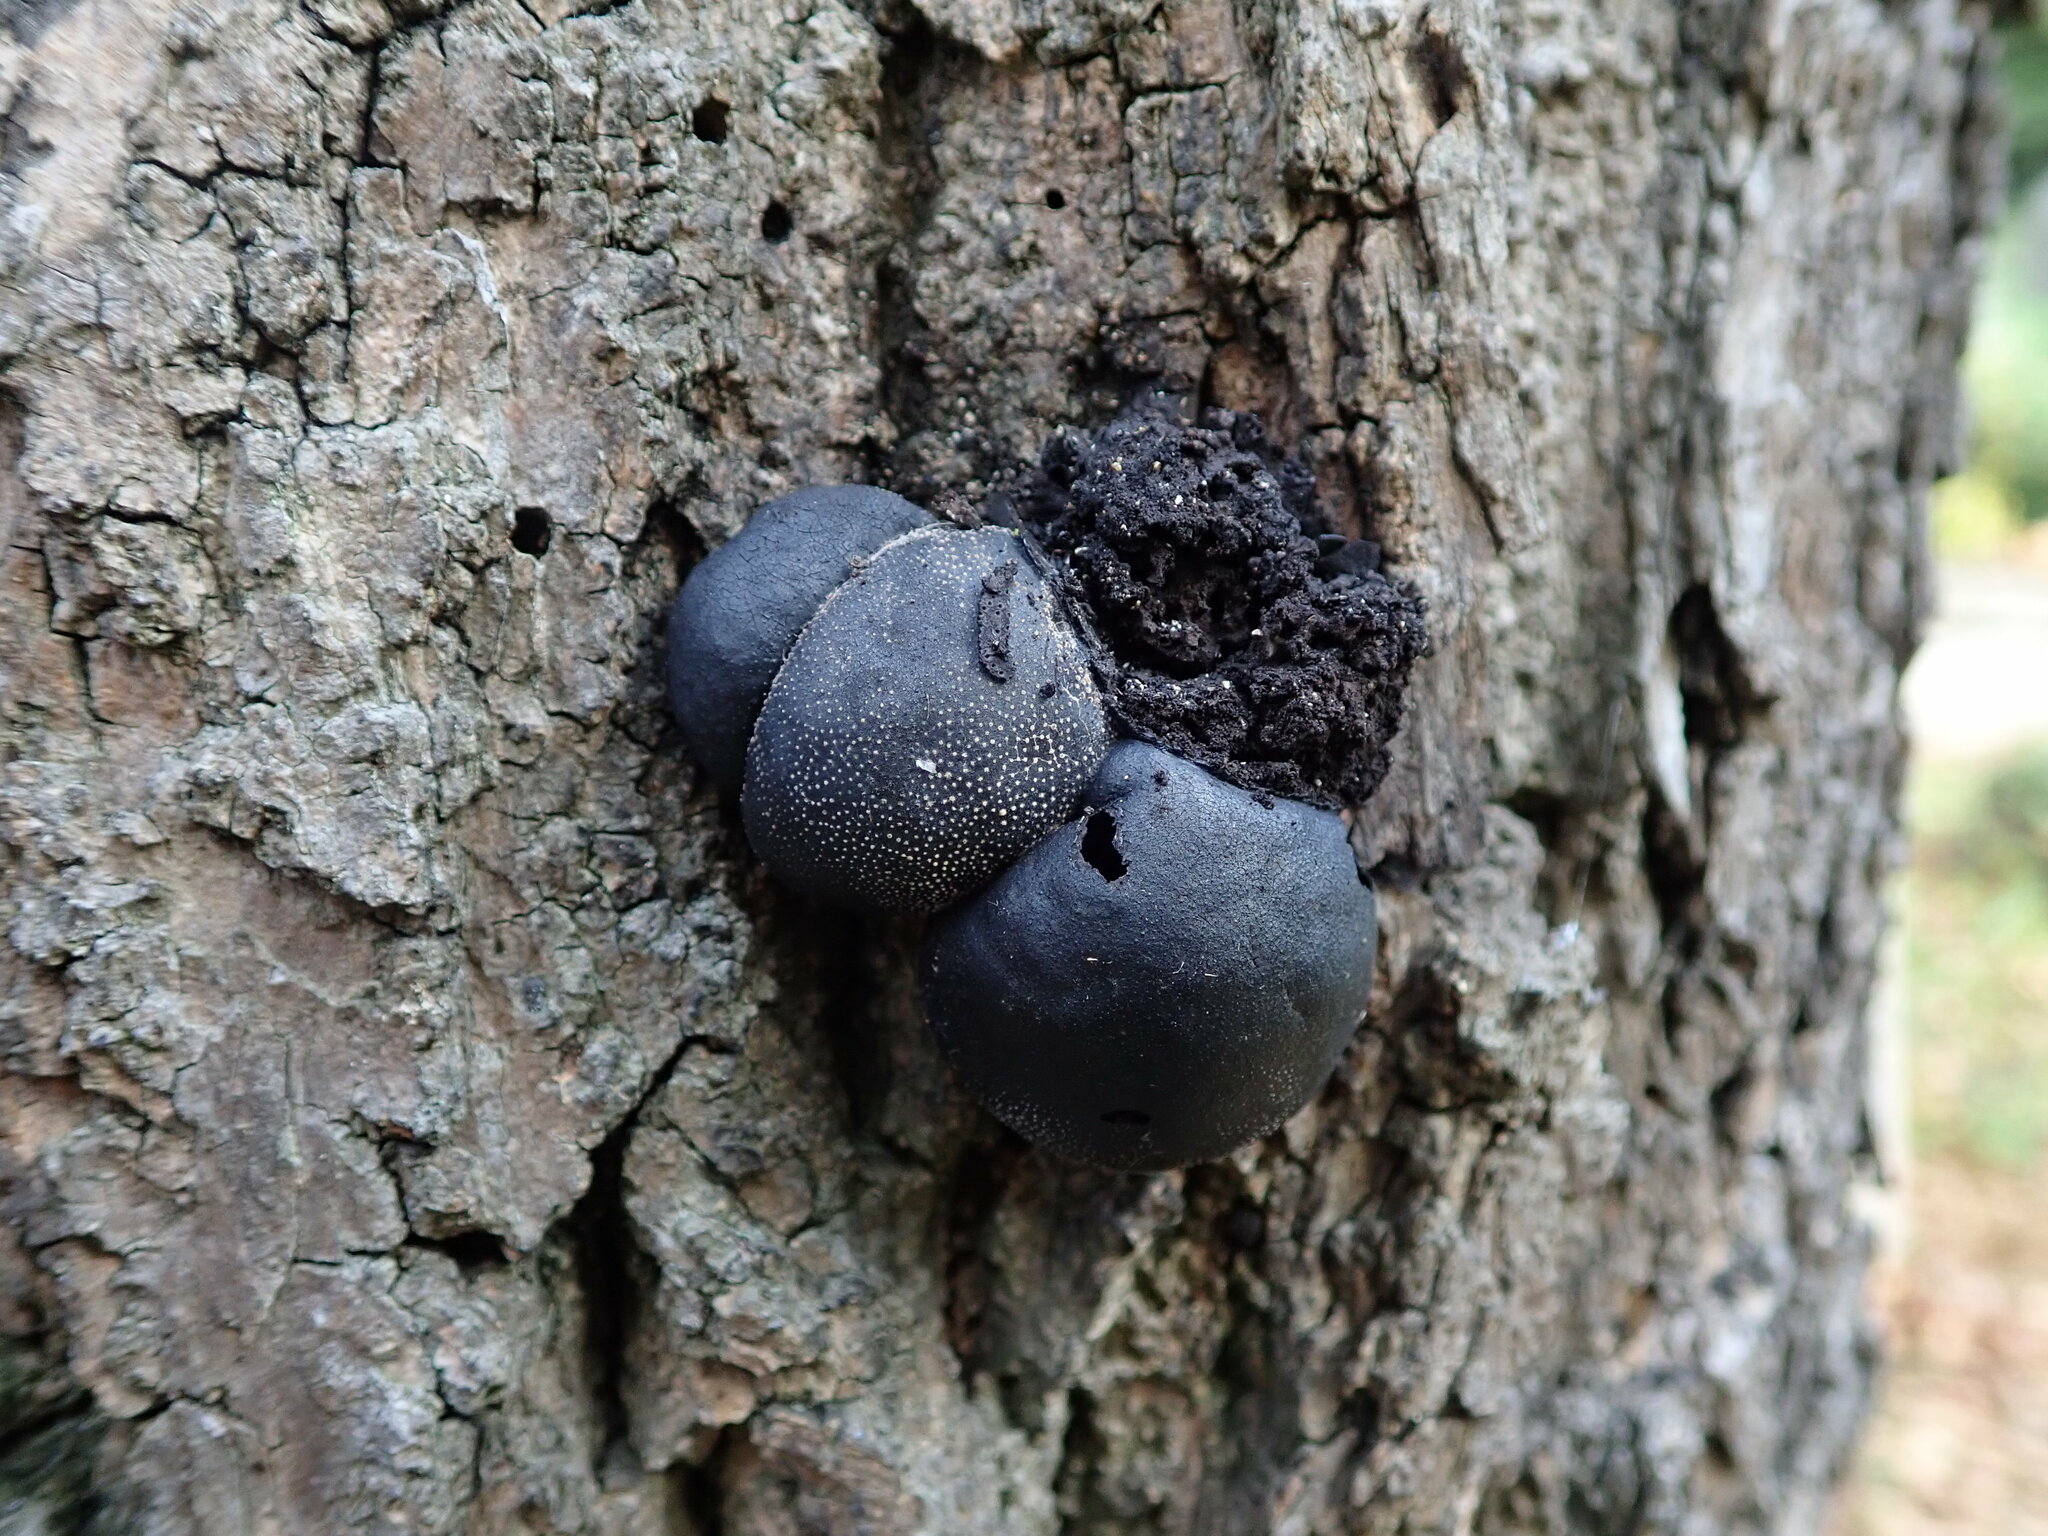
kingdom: Fungi
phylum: Ascomycota
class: Sordariomycetes
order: Xylariales
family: Hypoxylaceae
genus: Daldinia
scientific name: Daldinia concentrica
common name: Cramp balls
